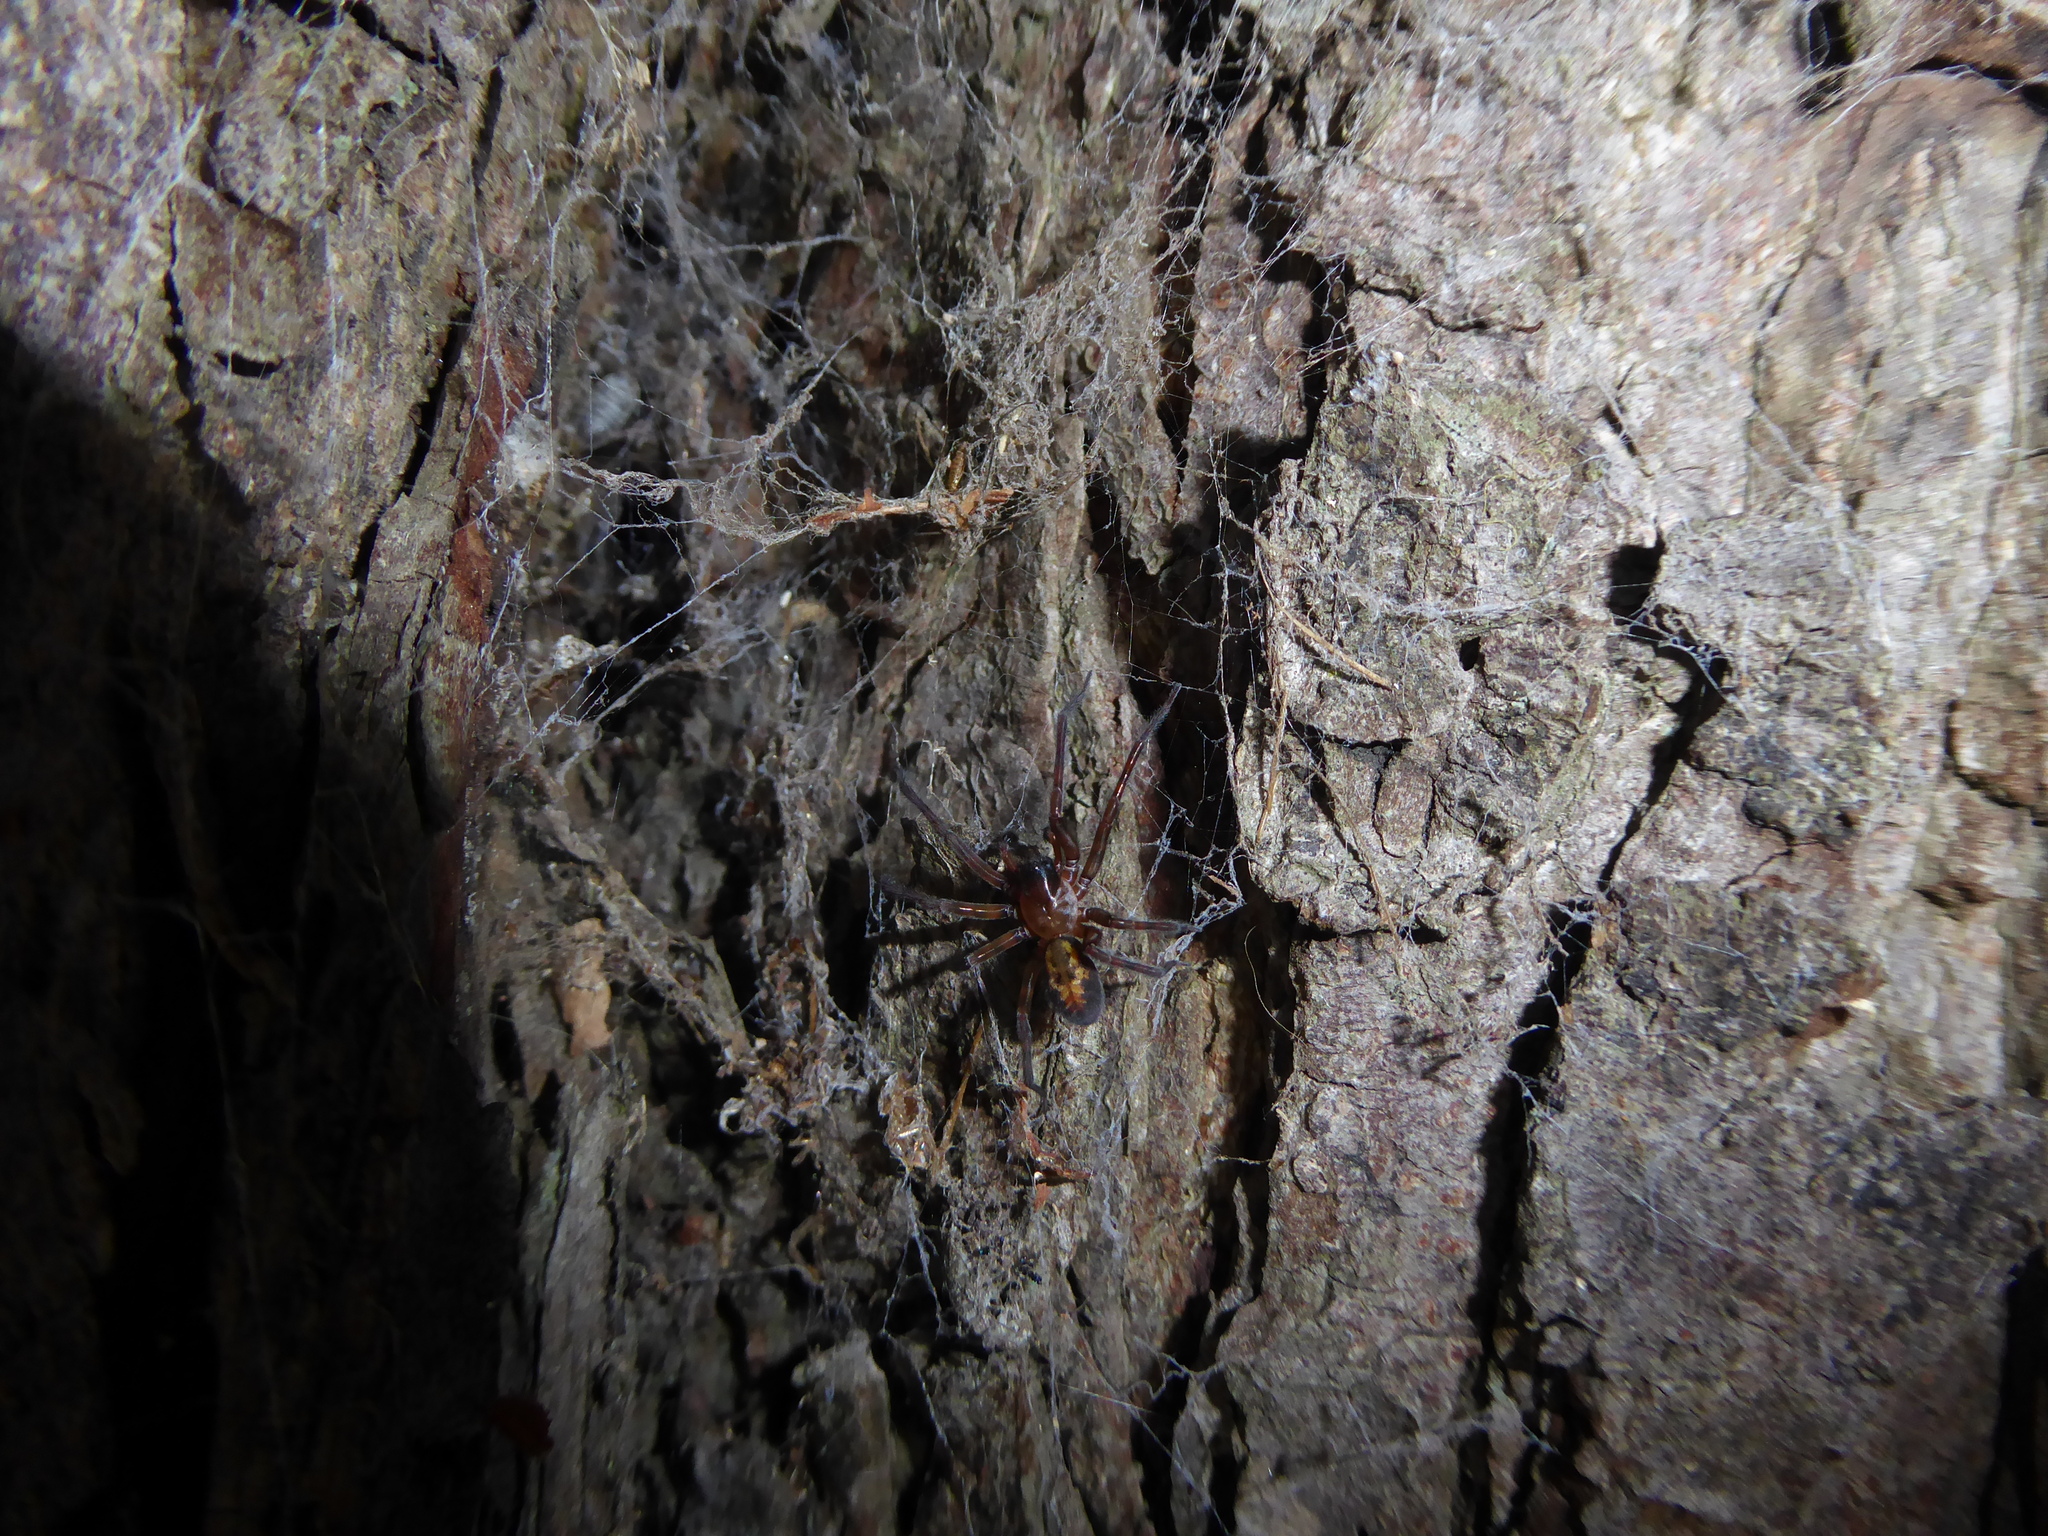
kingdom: Animalia
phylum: Arthropoda
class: Arachnida
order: Araneae
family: Amaurobiidae
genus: Amaurobius
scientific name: Amaurobius
